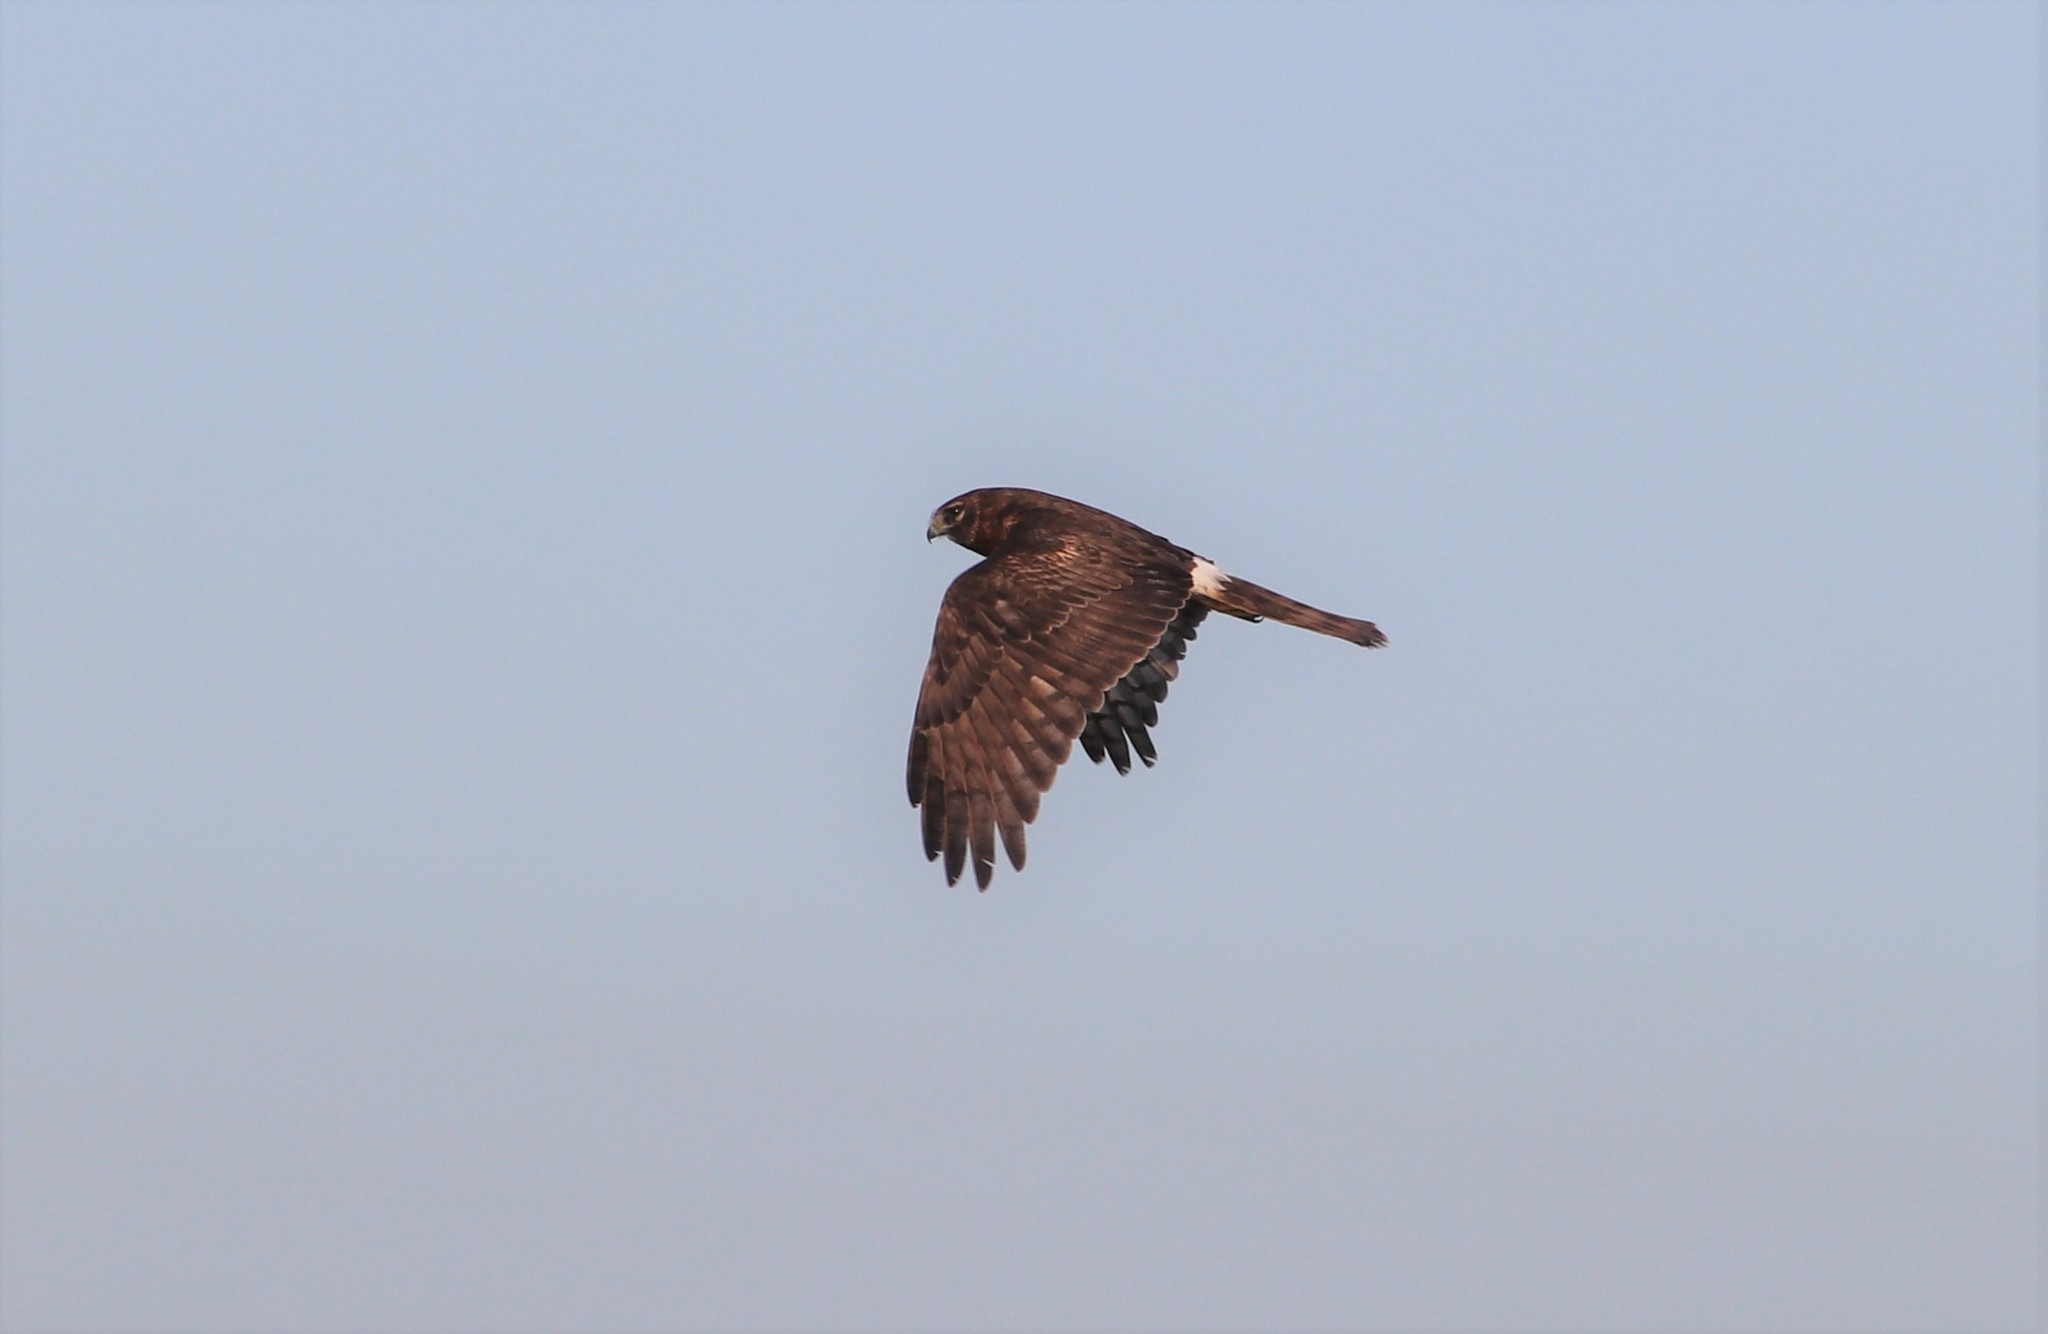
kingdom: Animalia
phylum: Chordata
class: Aves
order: Accipitriformes
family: Accipitridae
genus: Circus
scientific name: Circus cyaneus
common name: Hen harrier
